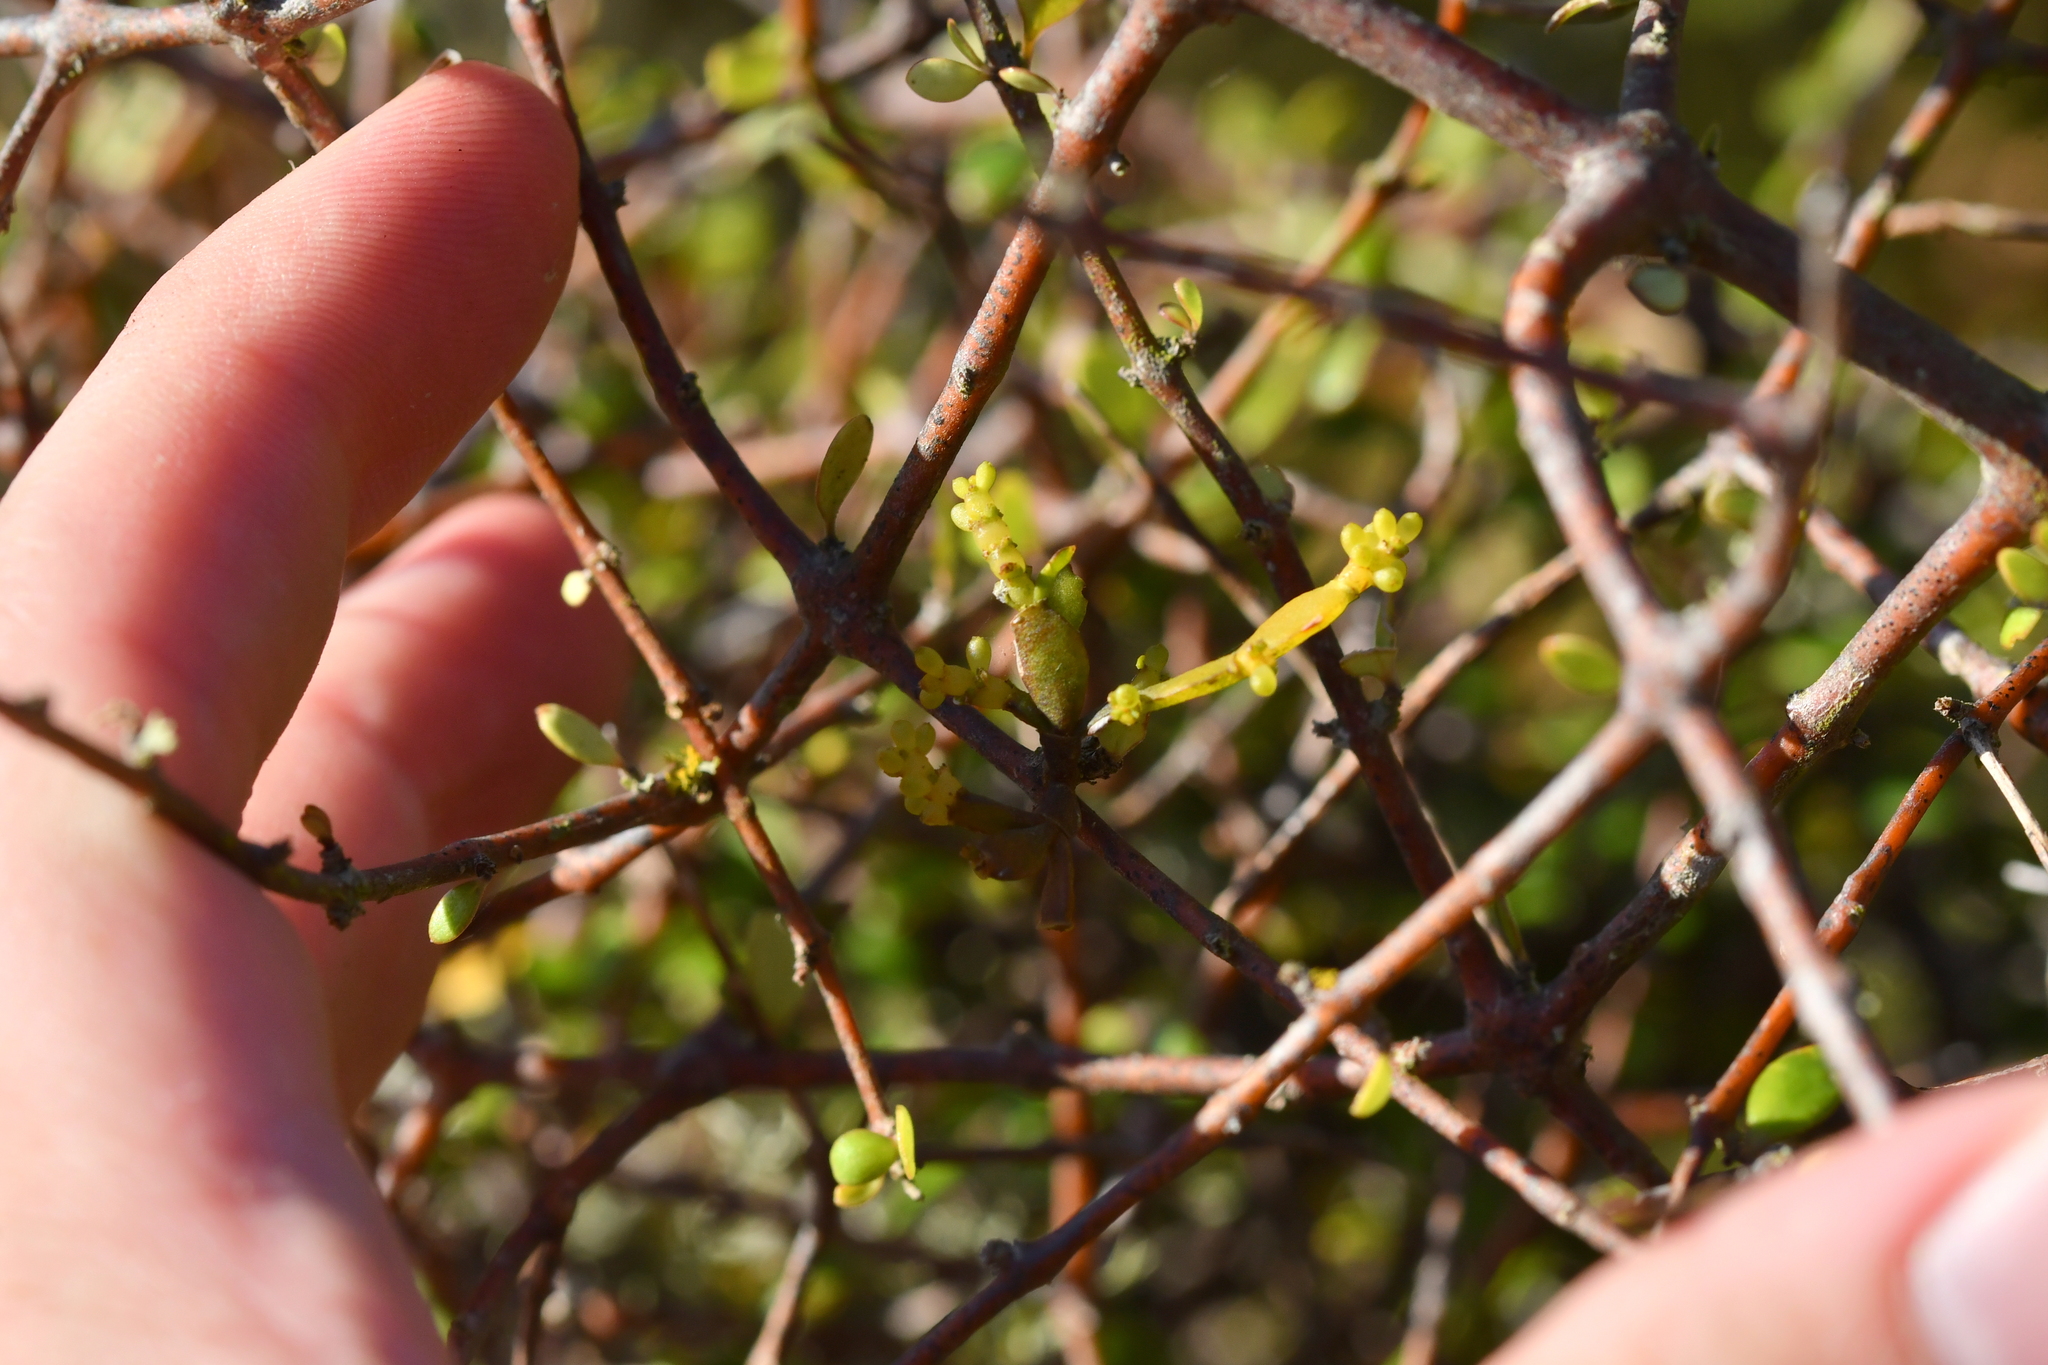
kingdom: Plantae
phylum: Tracheophyta
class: Magnoliopsida
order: Santalales
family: Viscaceae
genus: Korthalsella
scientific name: Korthalsella lindsayi
